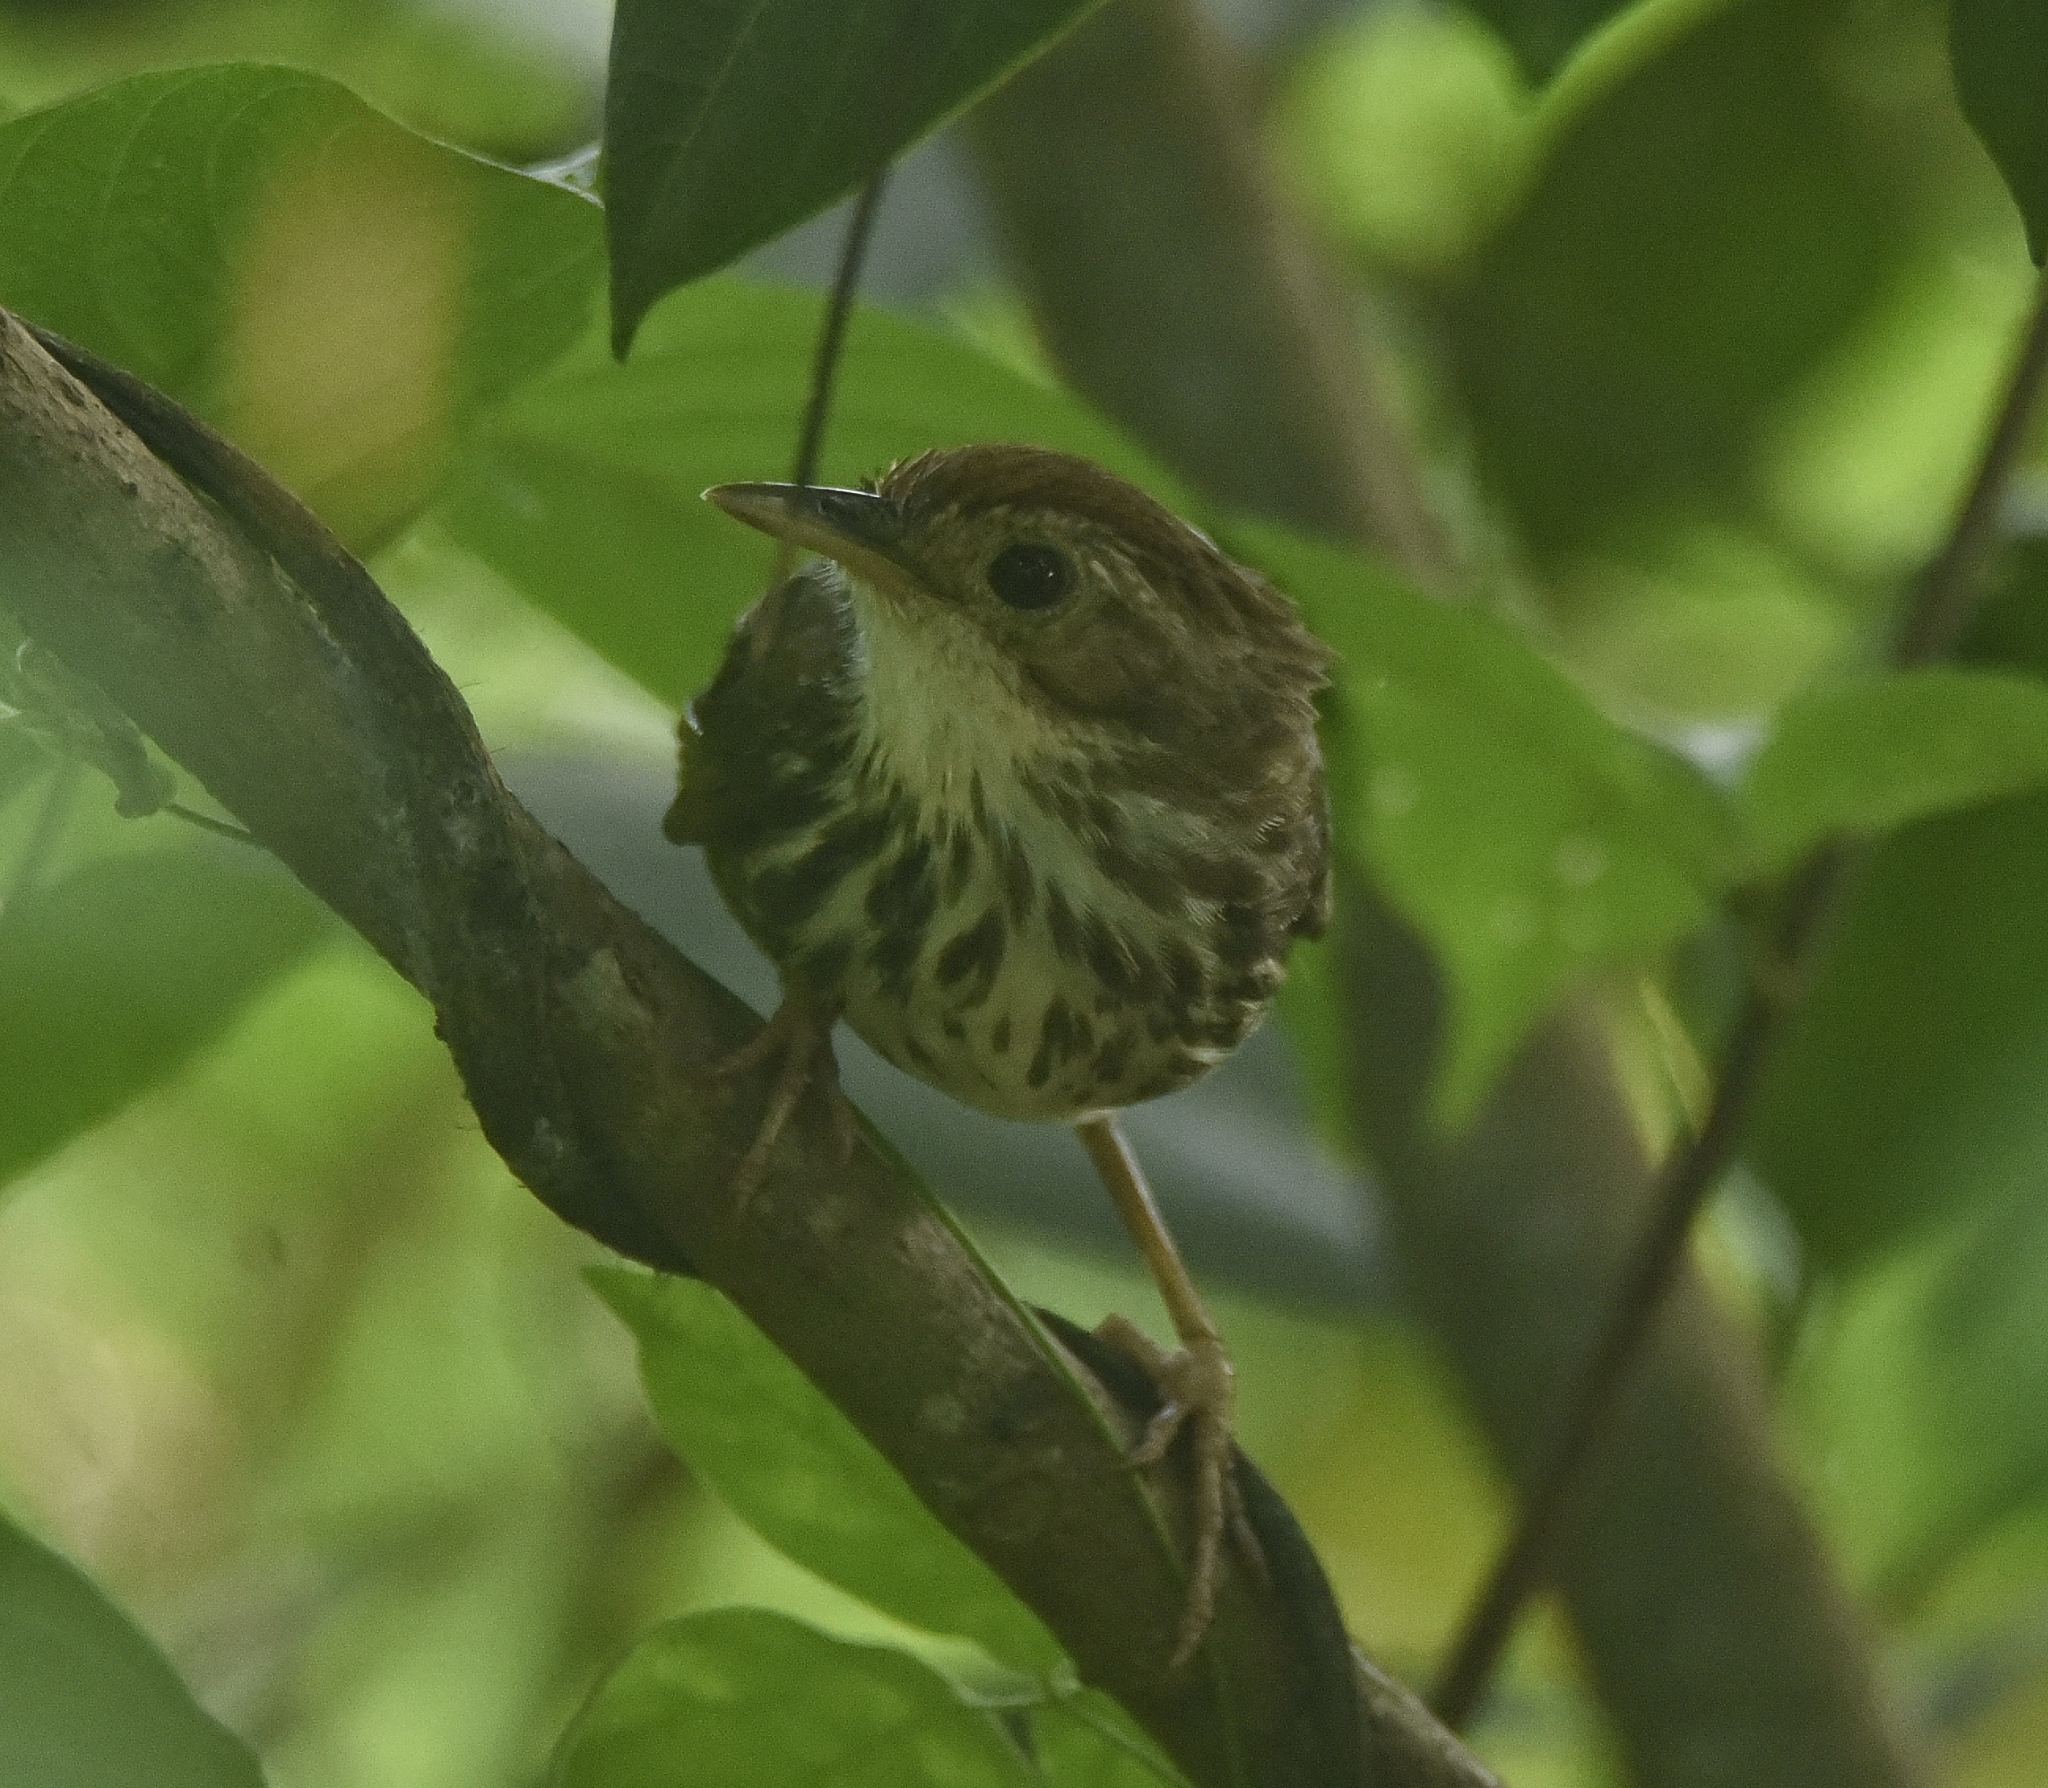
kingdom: Animalia
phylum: Chordata
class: Aves
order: Passeriformes
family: Pellorneidae
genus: Pellorneum
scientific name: Pellorneum ruficeps
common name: Puff-throated babbler
